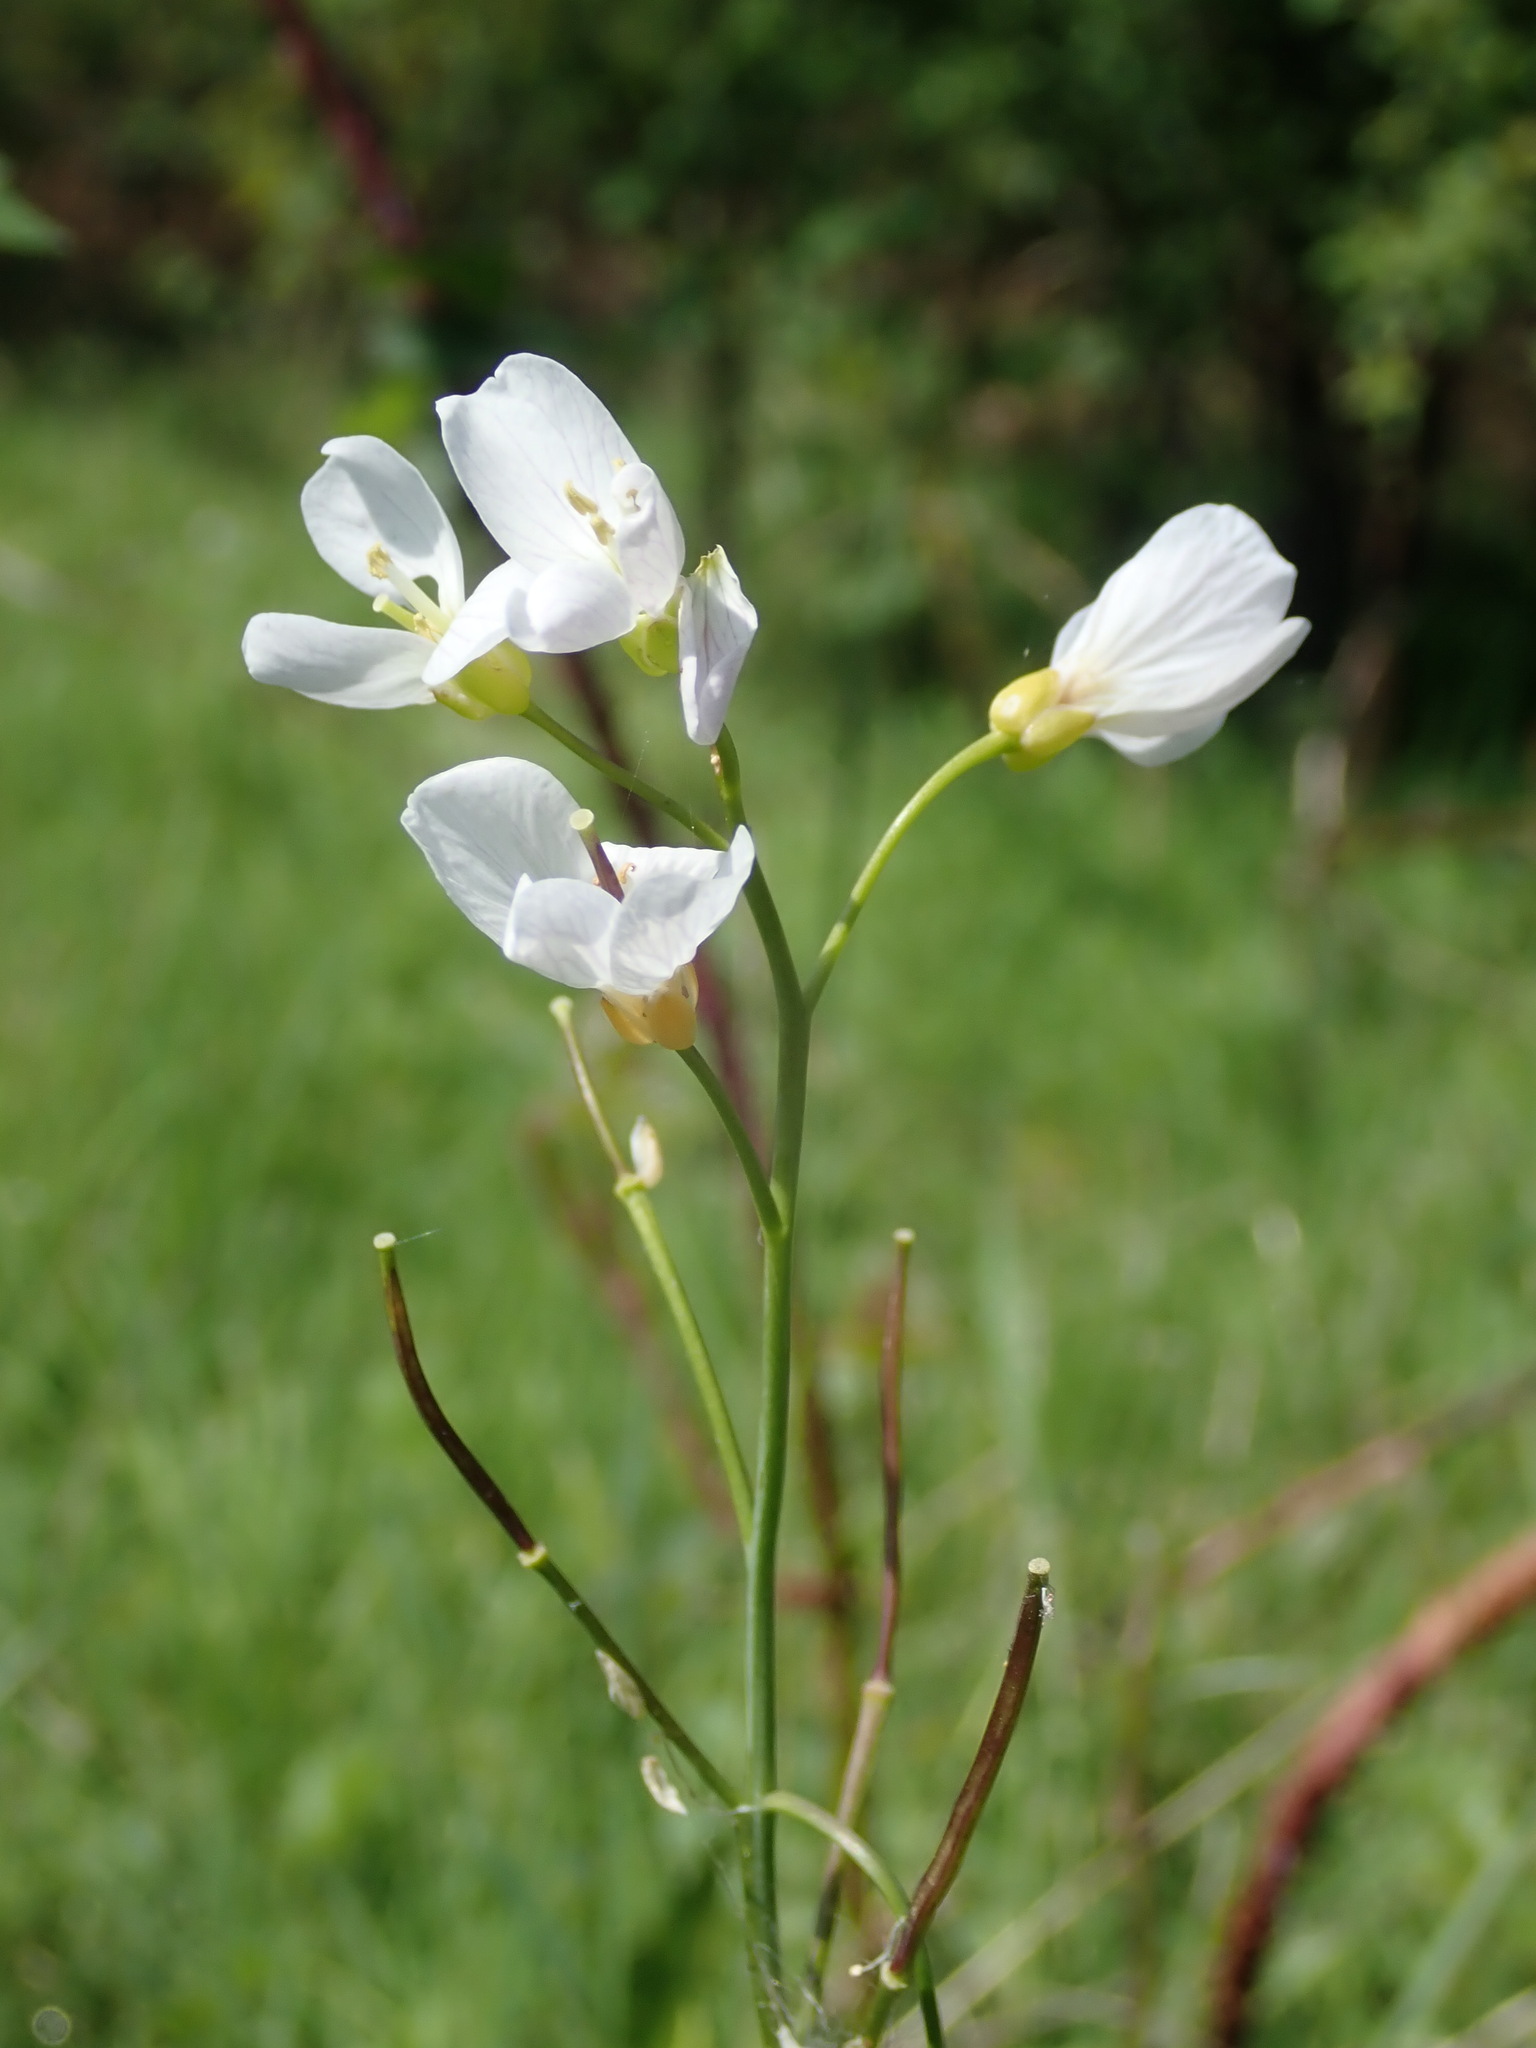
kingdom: Plantae
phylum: Tracheophyta
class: Magnoliopsida
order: Brassicales
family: Brassicaceae
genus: Cardamine
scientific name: Cardamine pratensis
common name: Cuckoo flower
